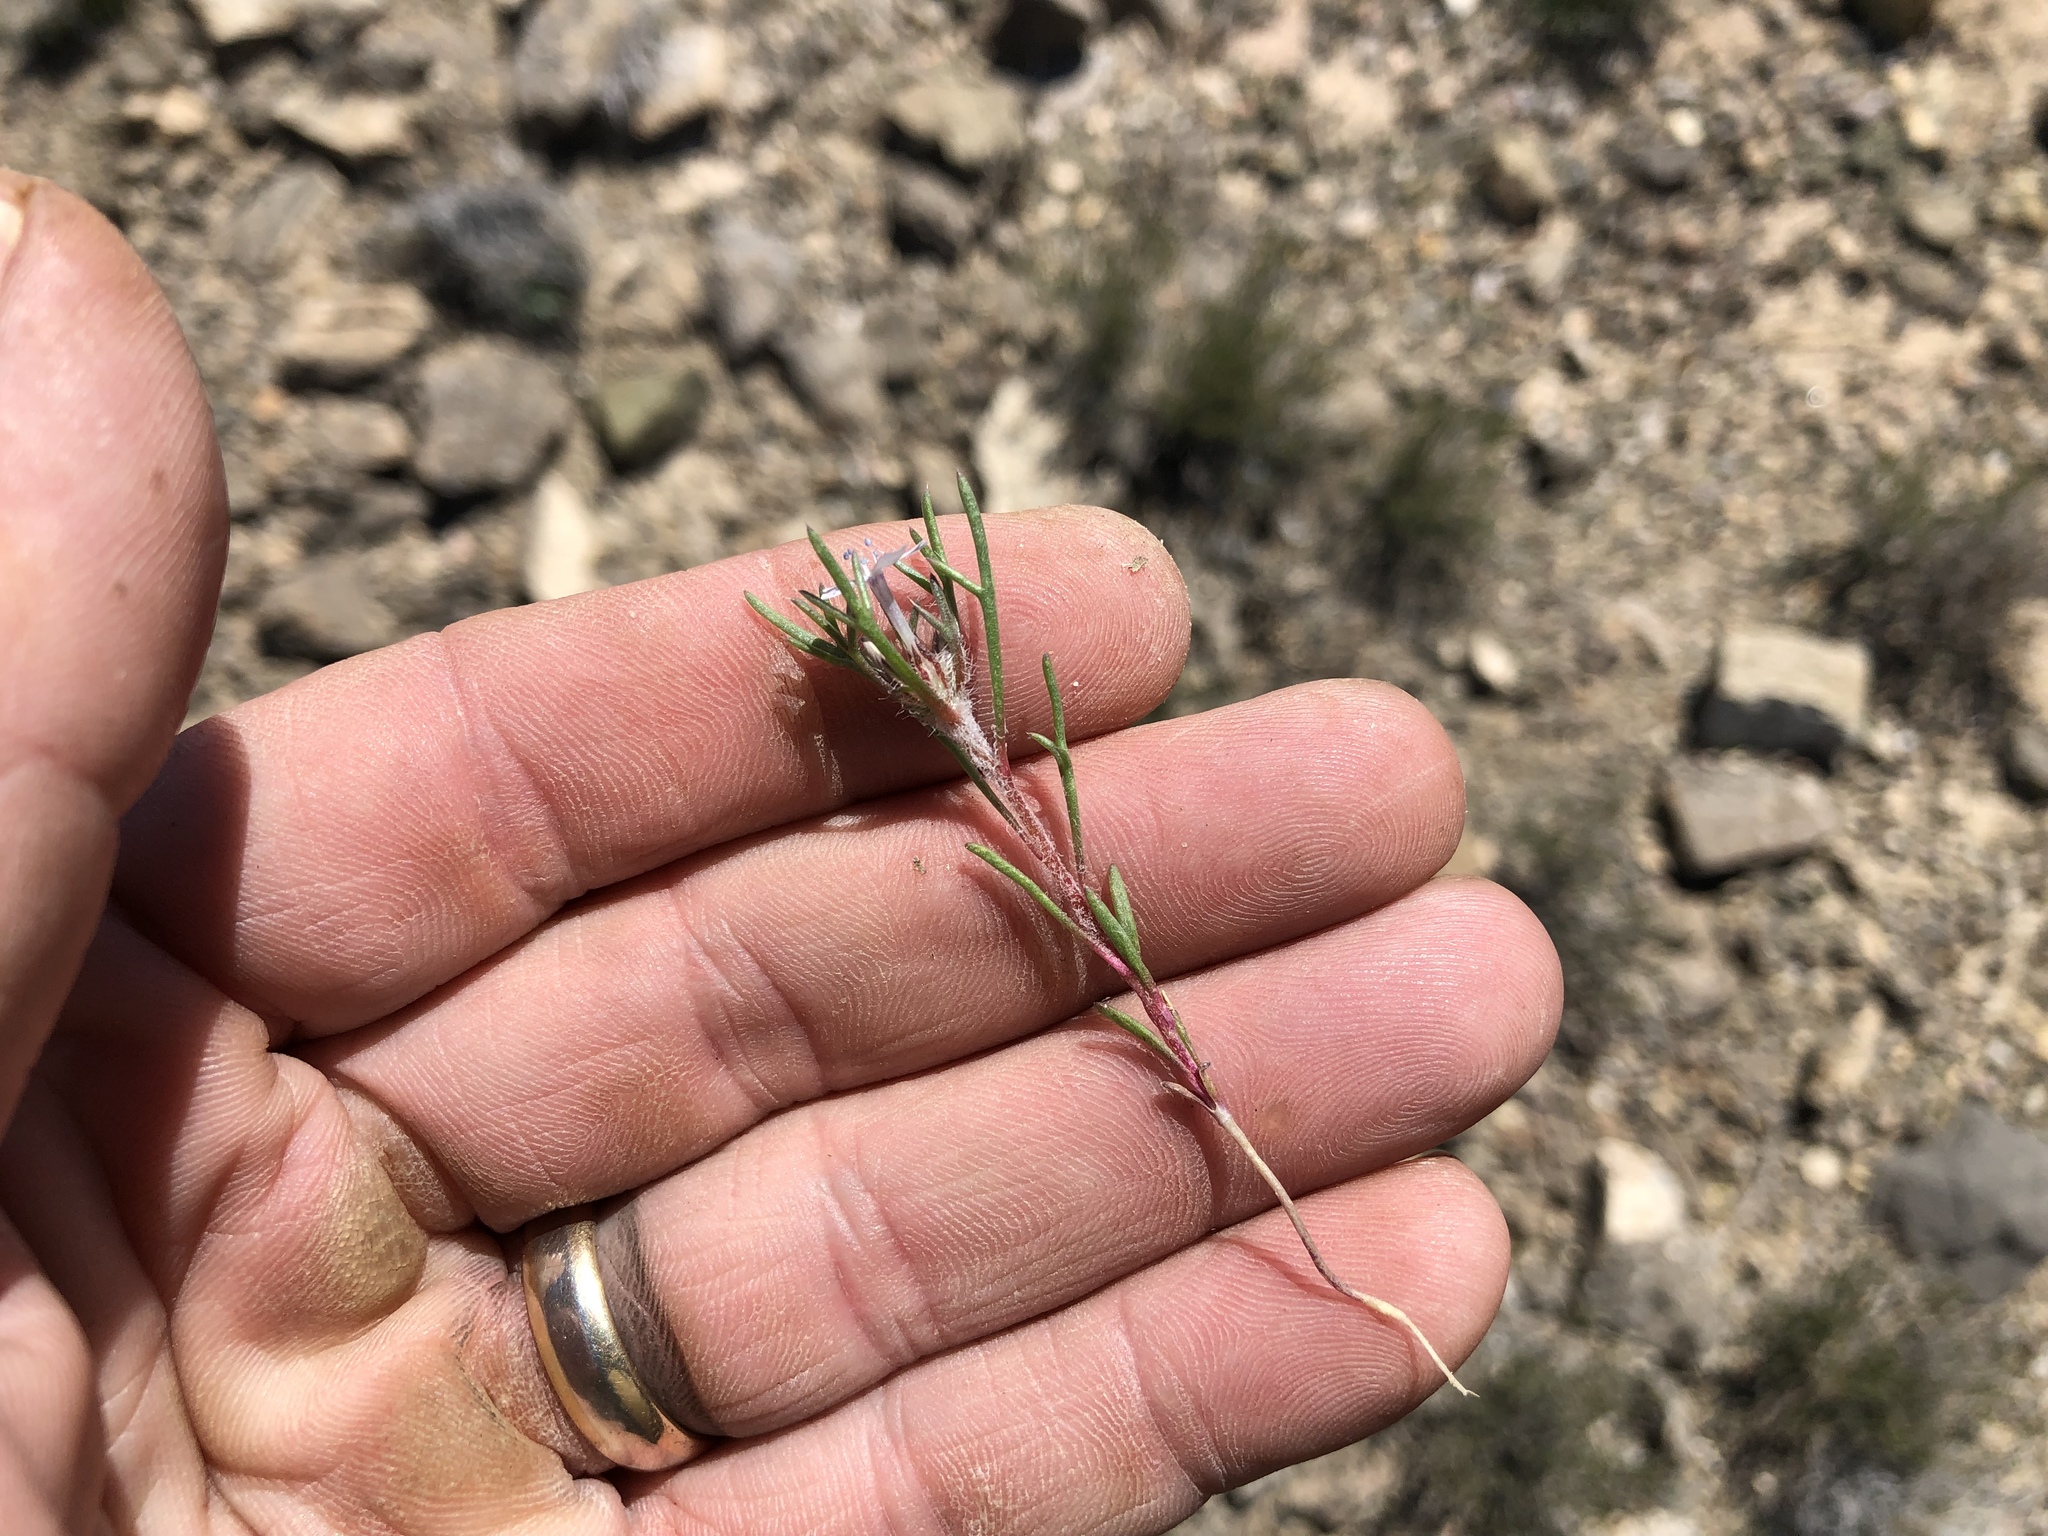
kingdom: Plantae
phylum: Tracheophyta
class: Magnoliopsida
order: Ericales
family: Polemoniaceae
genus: Ipomopsis
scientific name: Ipomopsis pumila
